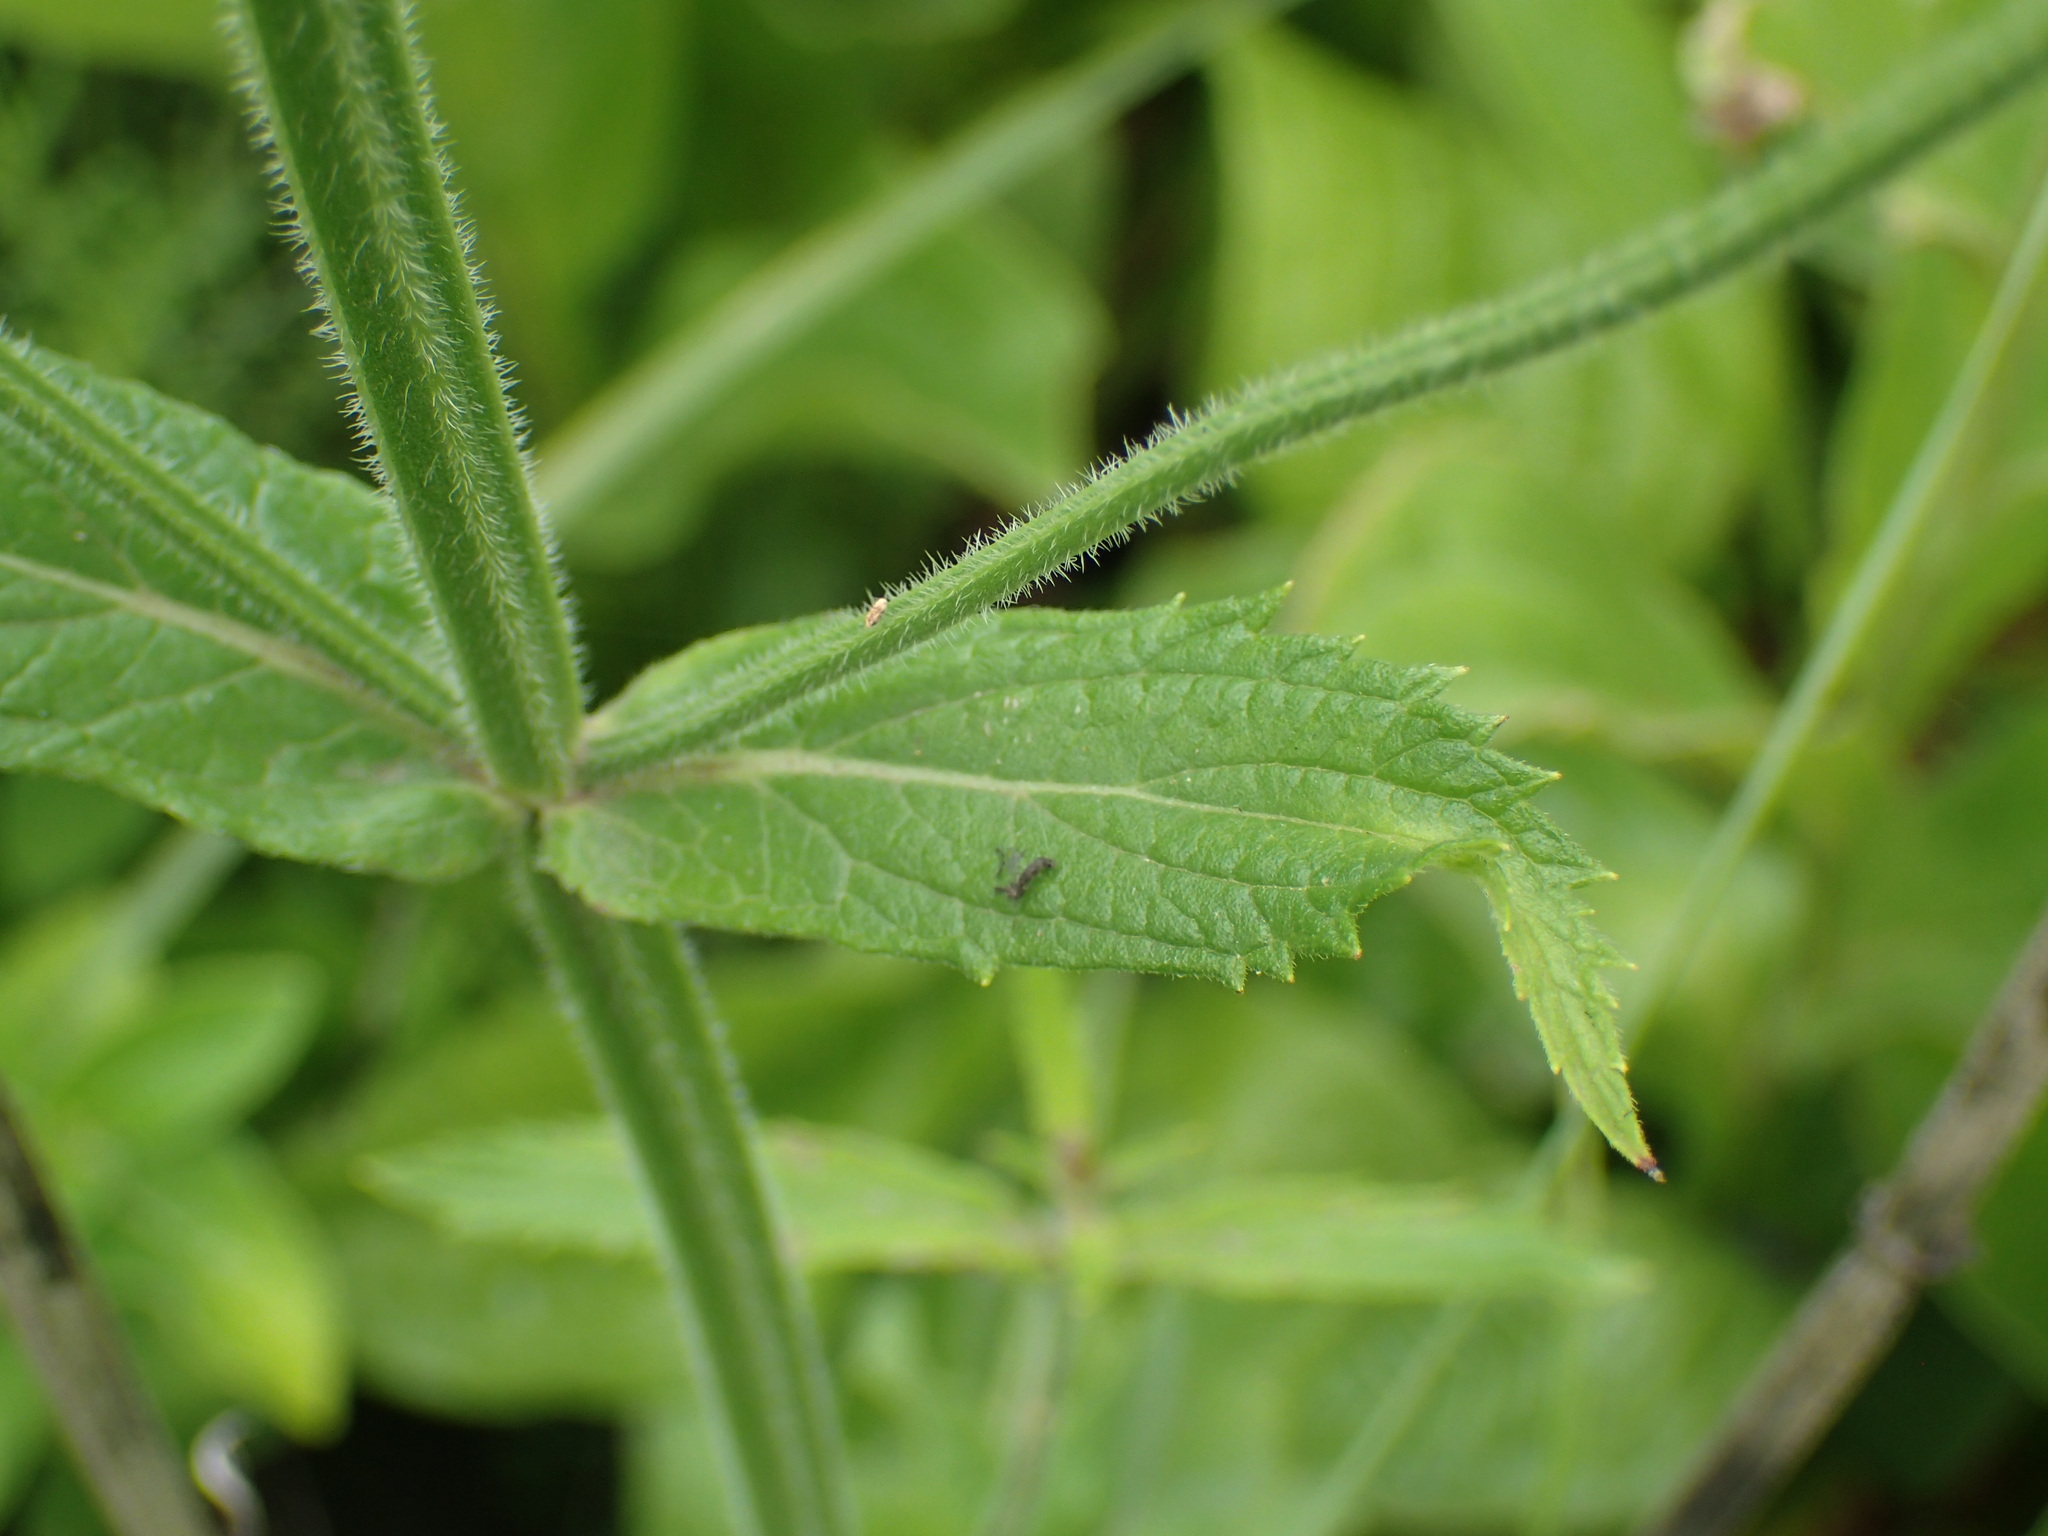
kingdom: Plantae
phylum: Tracheophyta
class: Magnoliopsida
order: Lamiales
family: Verbenaceae
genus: Verbena
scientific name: Verbena bonariensis
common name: Purpletop vervain
